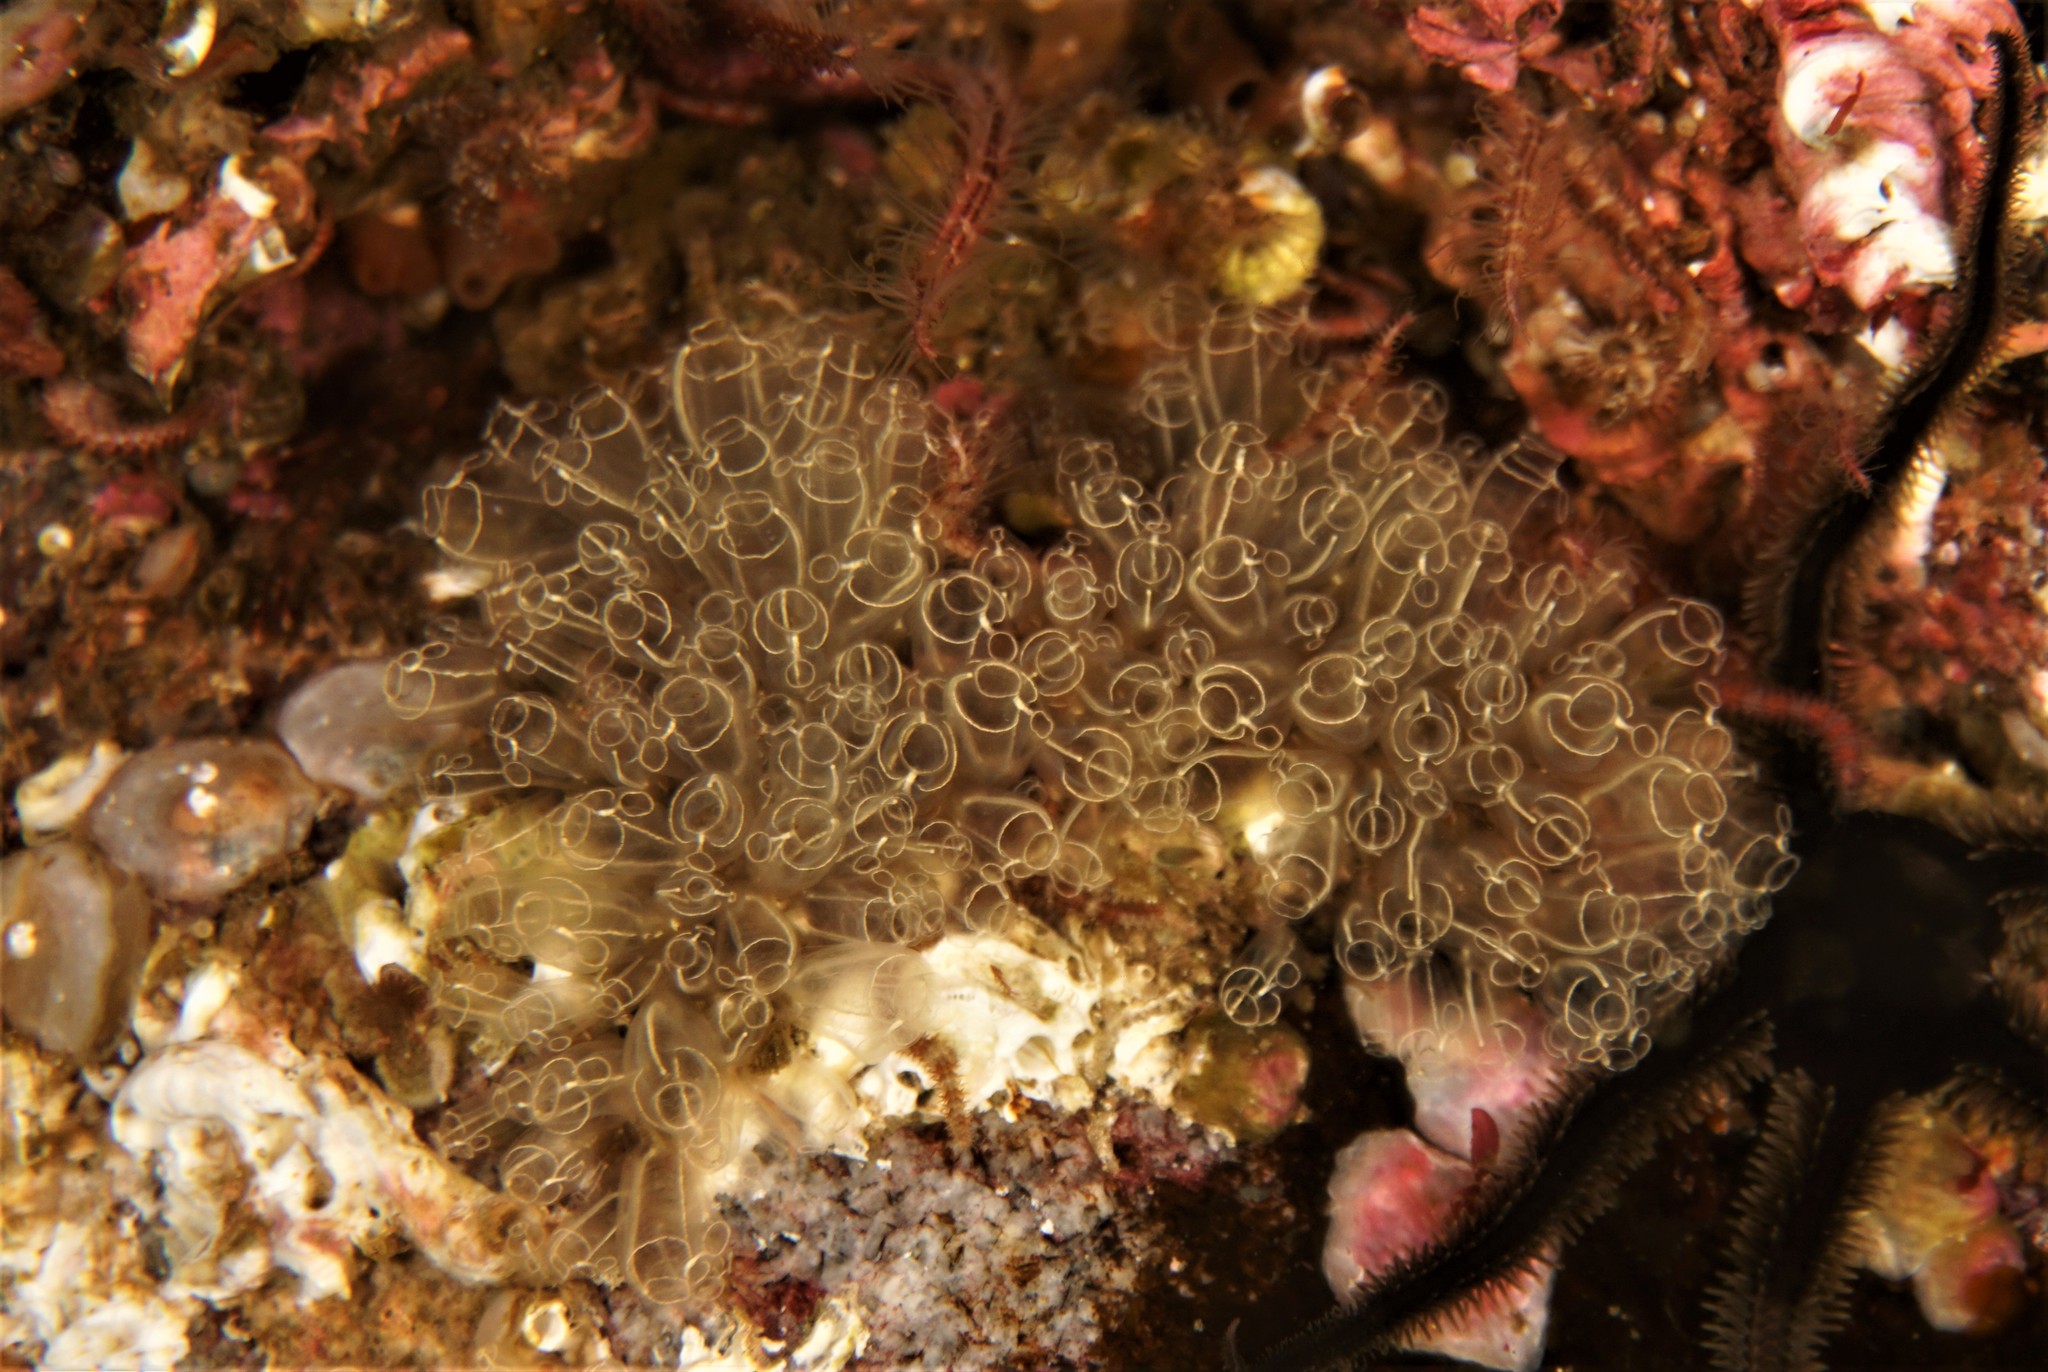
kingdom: Animalia
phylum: Chordata
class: Ascidiacea
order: Aplousobranchia
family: Clavelinidae
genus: Clavelina
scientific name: Clavelina lepadiformis
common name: Light bulb tunicate
